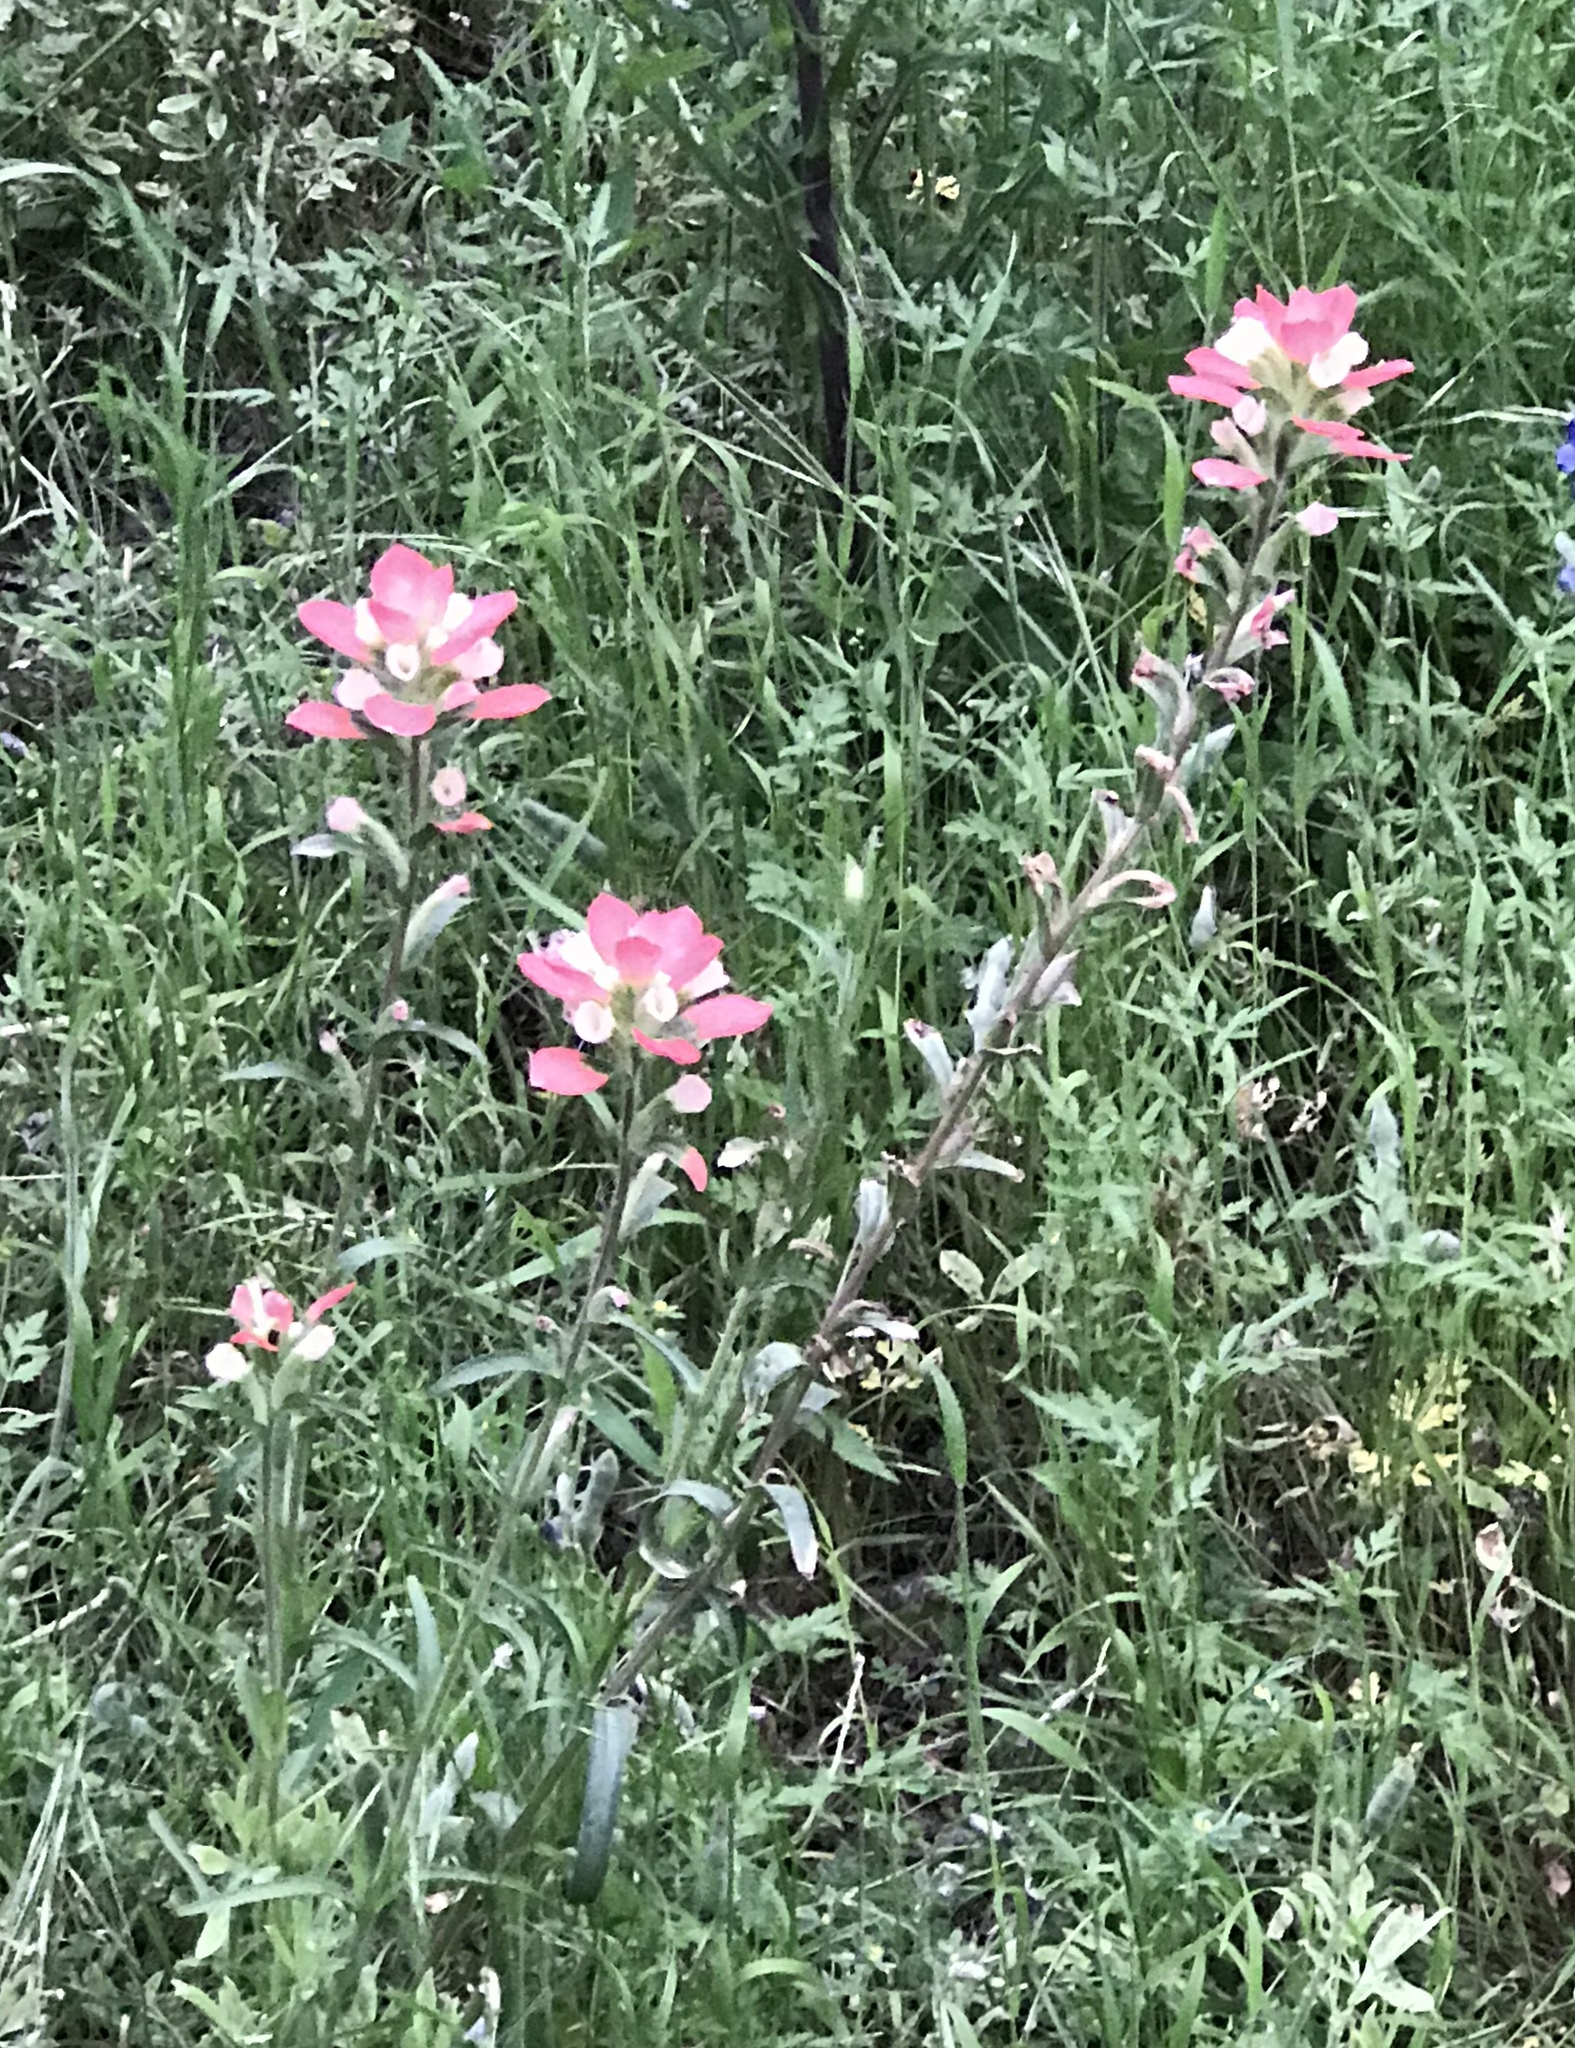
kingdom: Plantae
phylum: Tracheophyta
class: Magnoliopsida
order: Lamiales
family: Orobanchaceae
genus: Castilleja
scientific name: Castilleja indivisa
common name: Texas paintbrush
